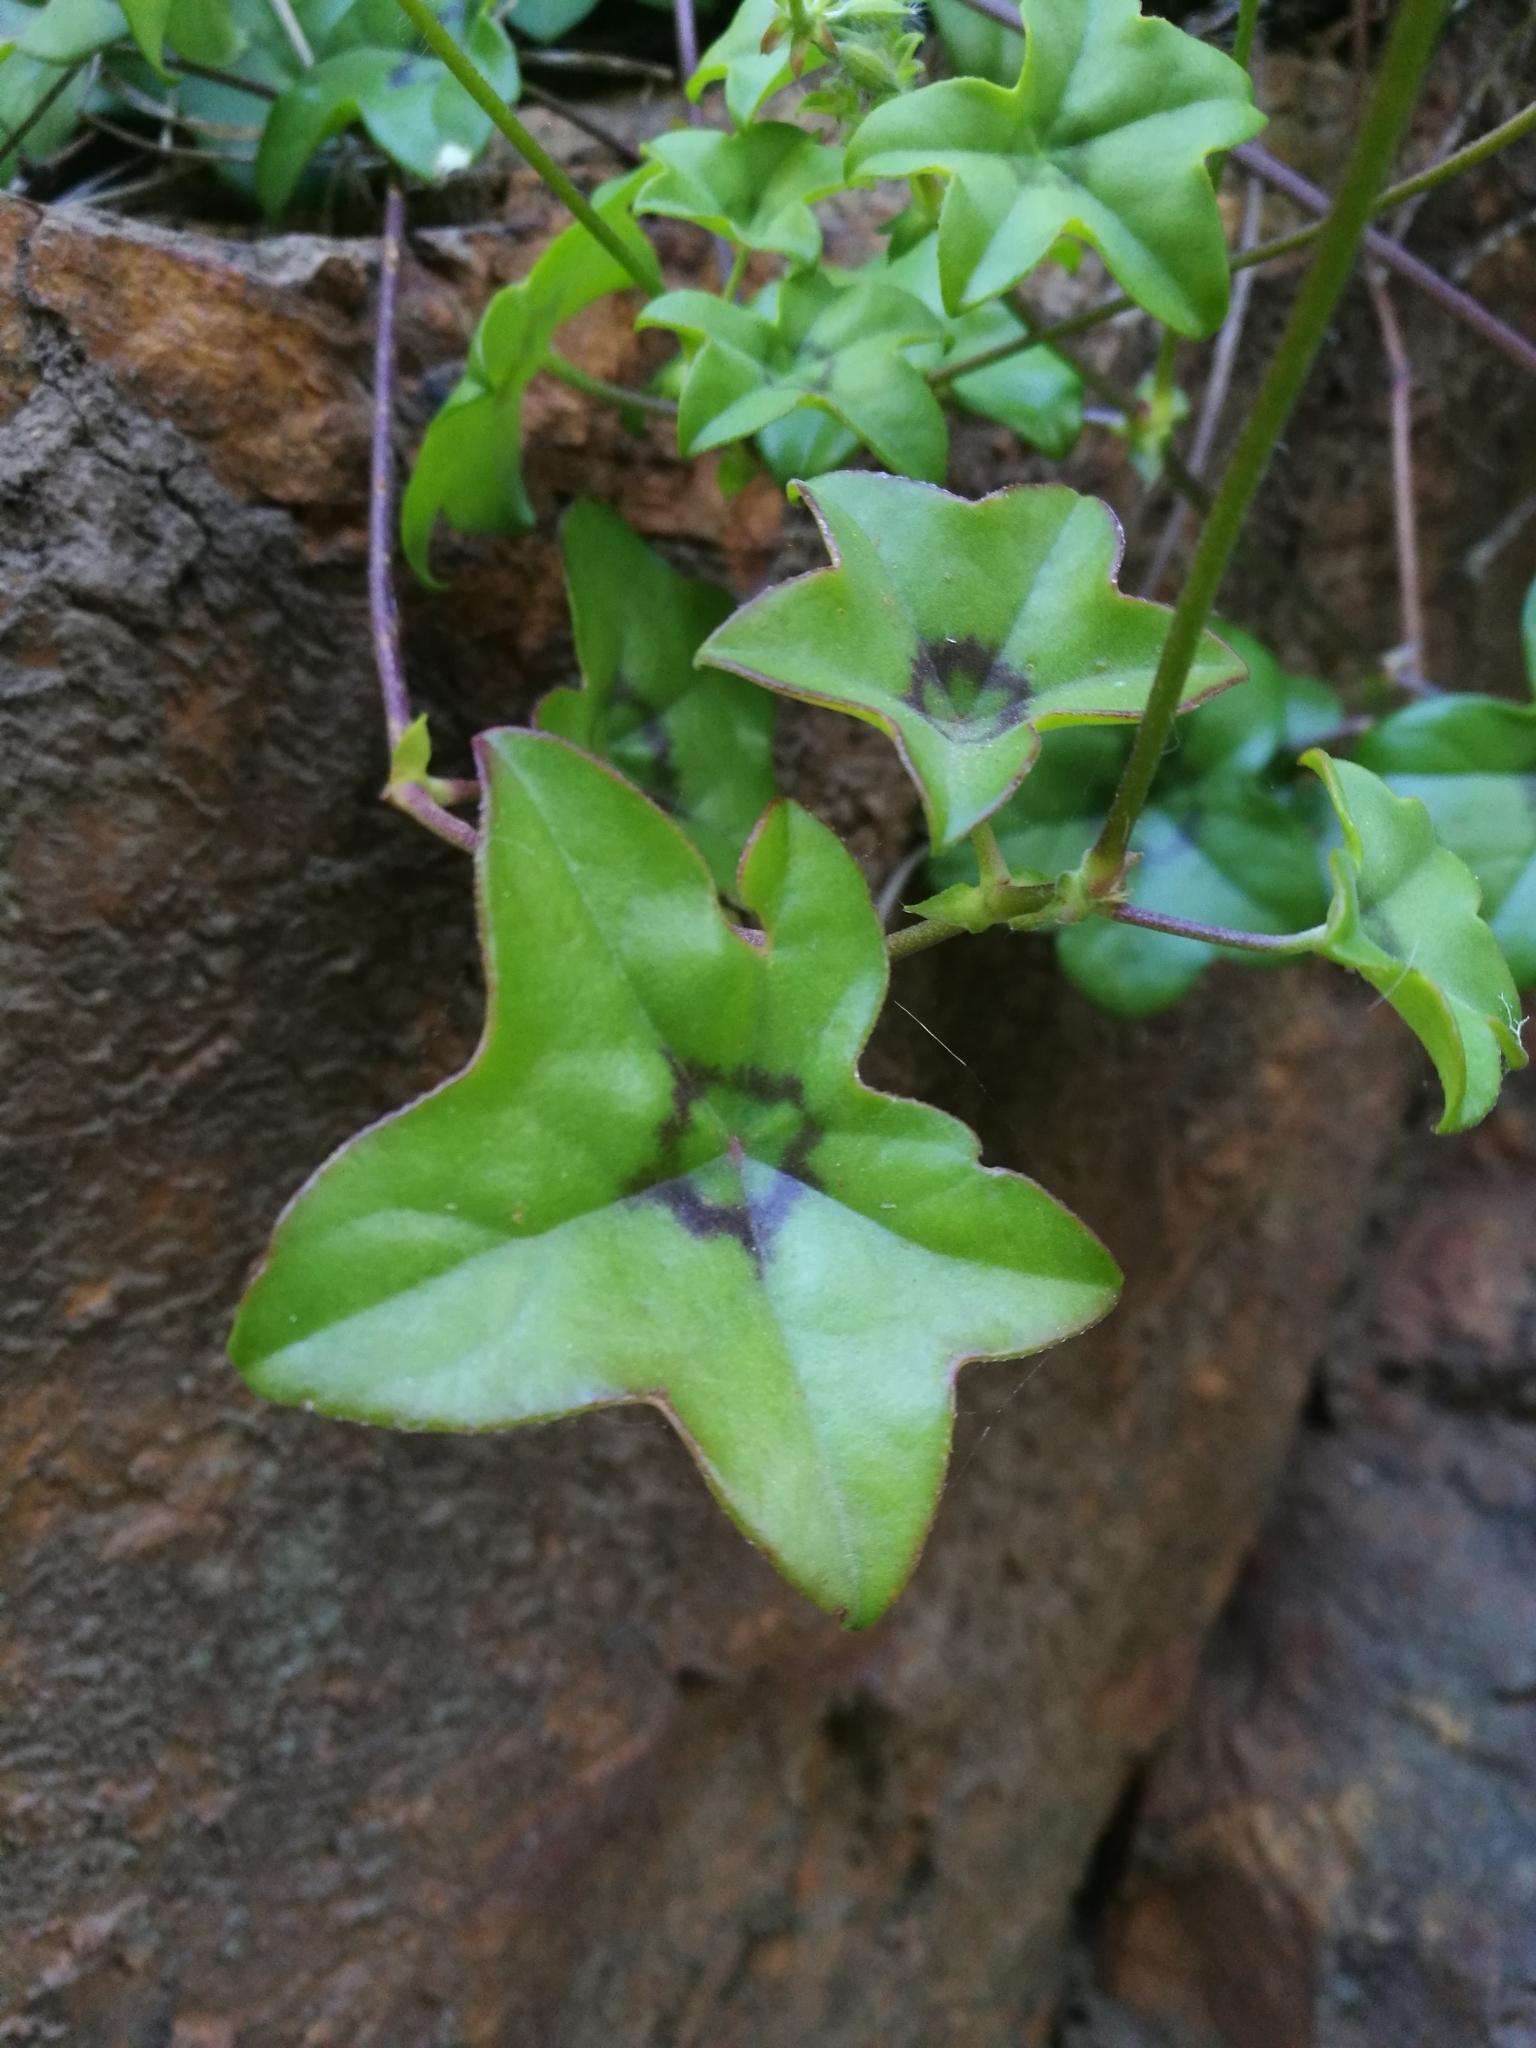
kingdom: Plantae
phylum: Tracheophyta
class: Magnoliopsida
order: Geraniales
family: Geraniaceae
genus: Pelargonium
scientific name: Pelargonium peltatum
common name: Ivyleaf geranium
